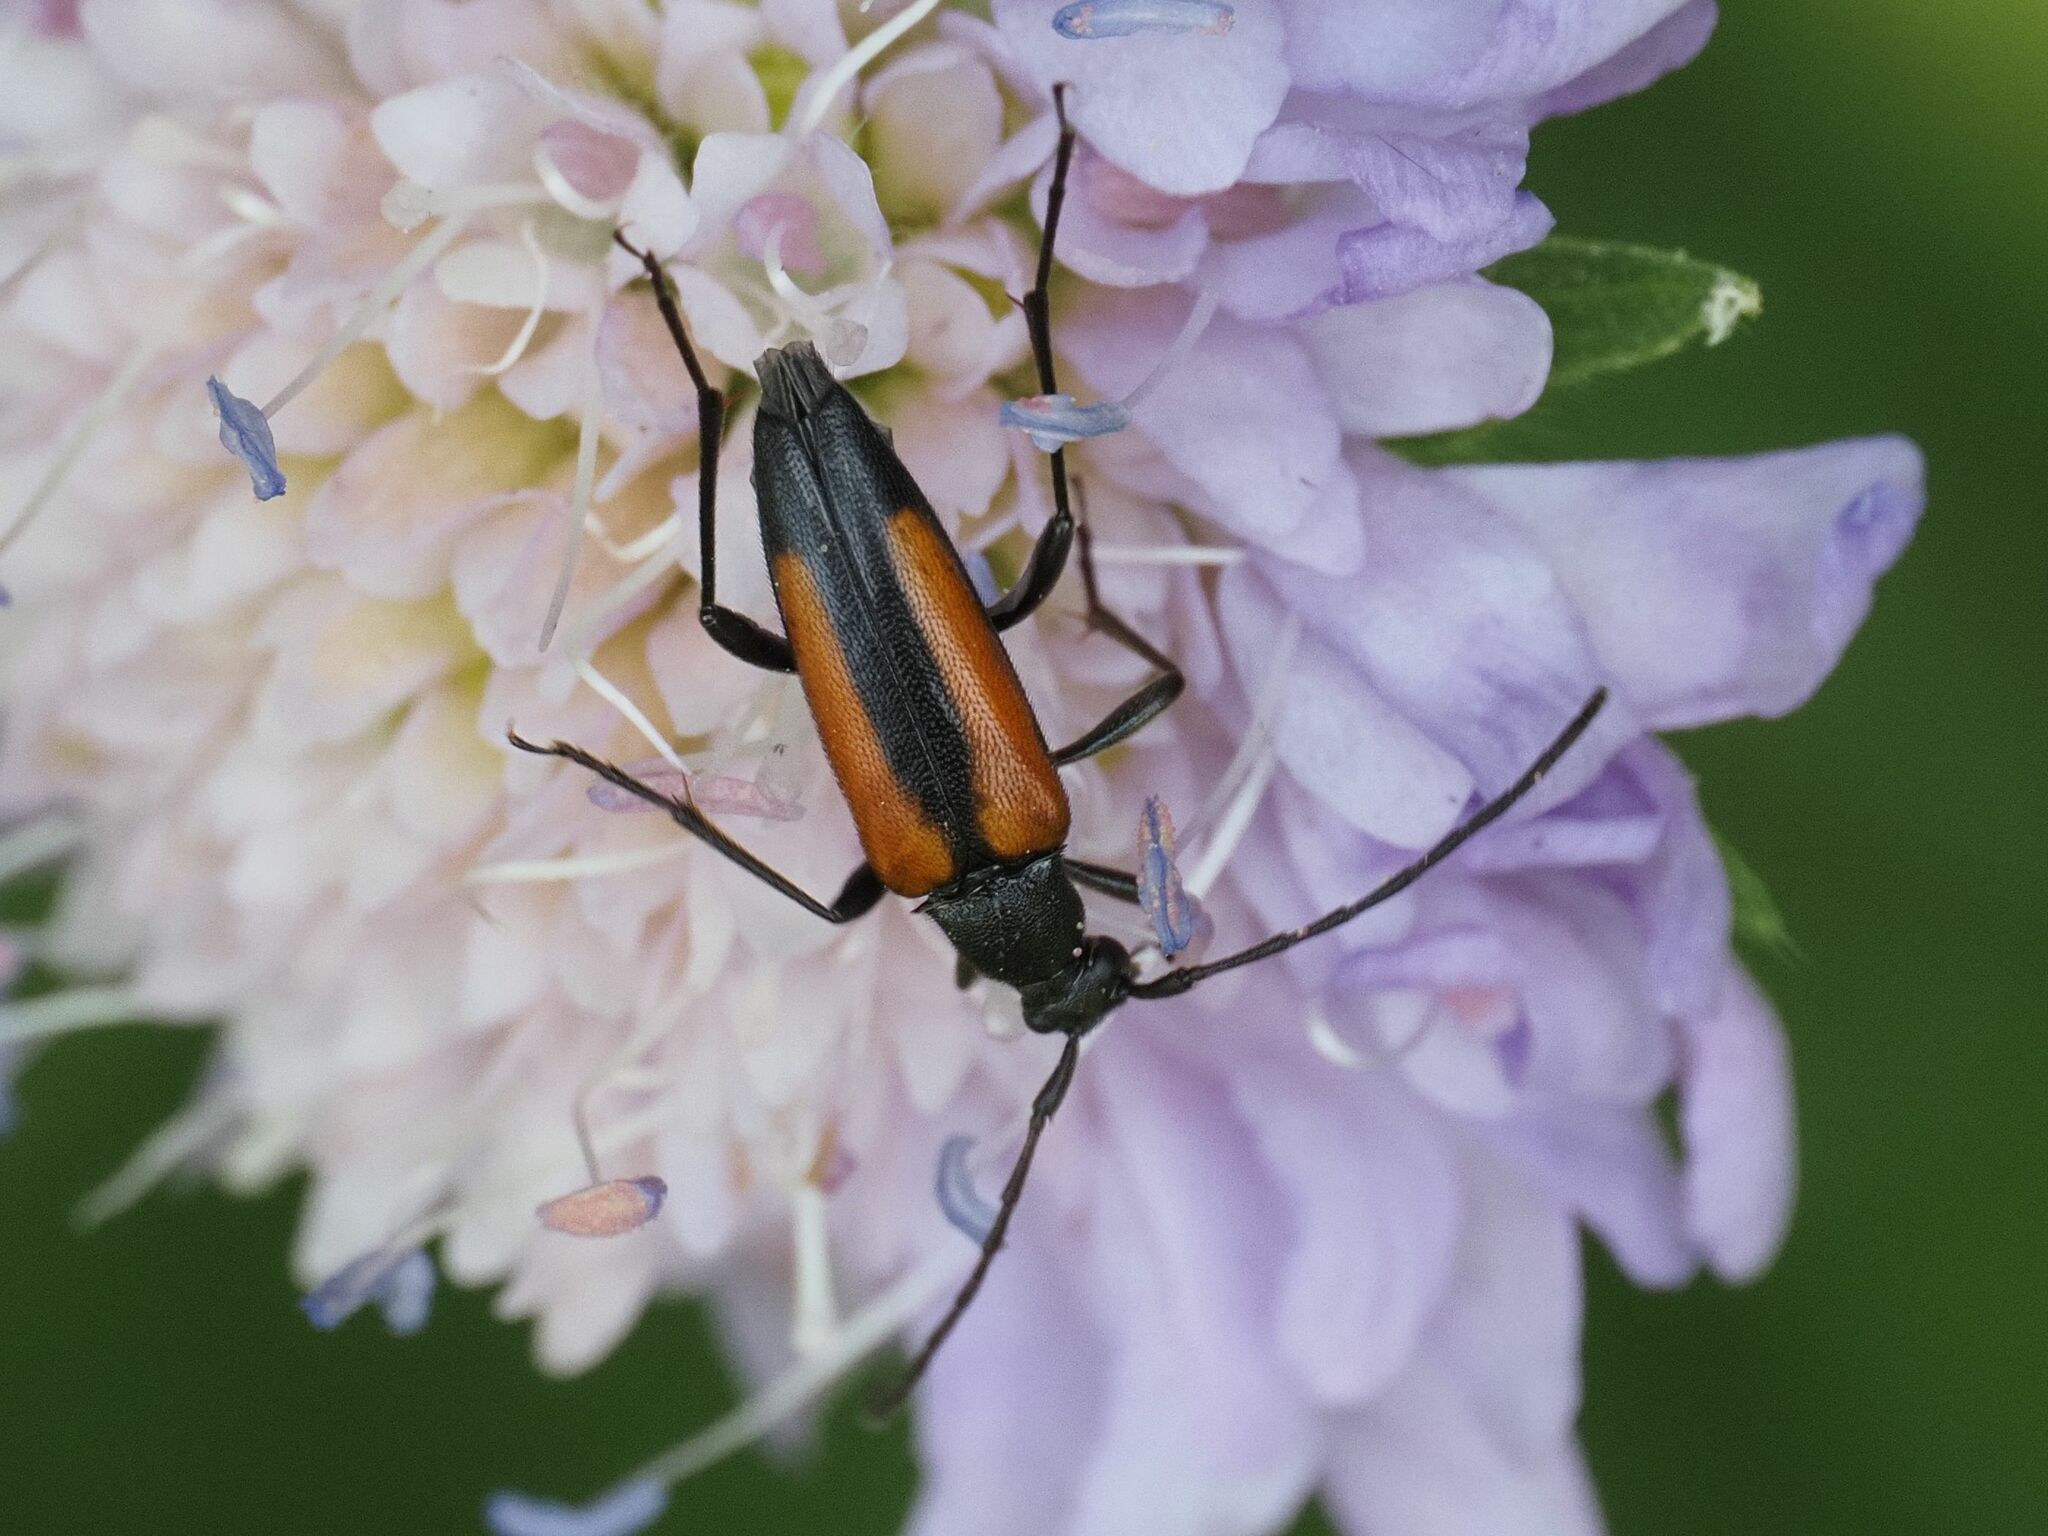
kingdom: Animalia
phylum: Arthropoda
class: Insecta
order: Coleoptera
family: Cerambycidae
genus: Stenurella
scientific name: Stenurella melanura
